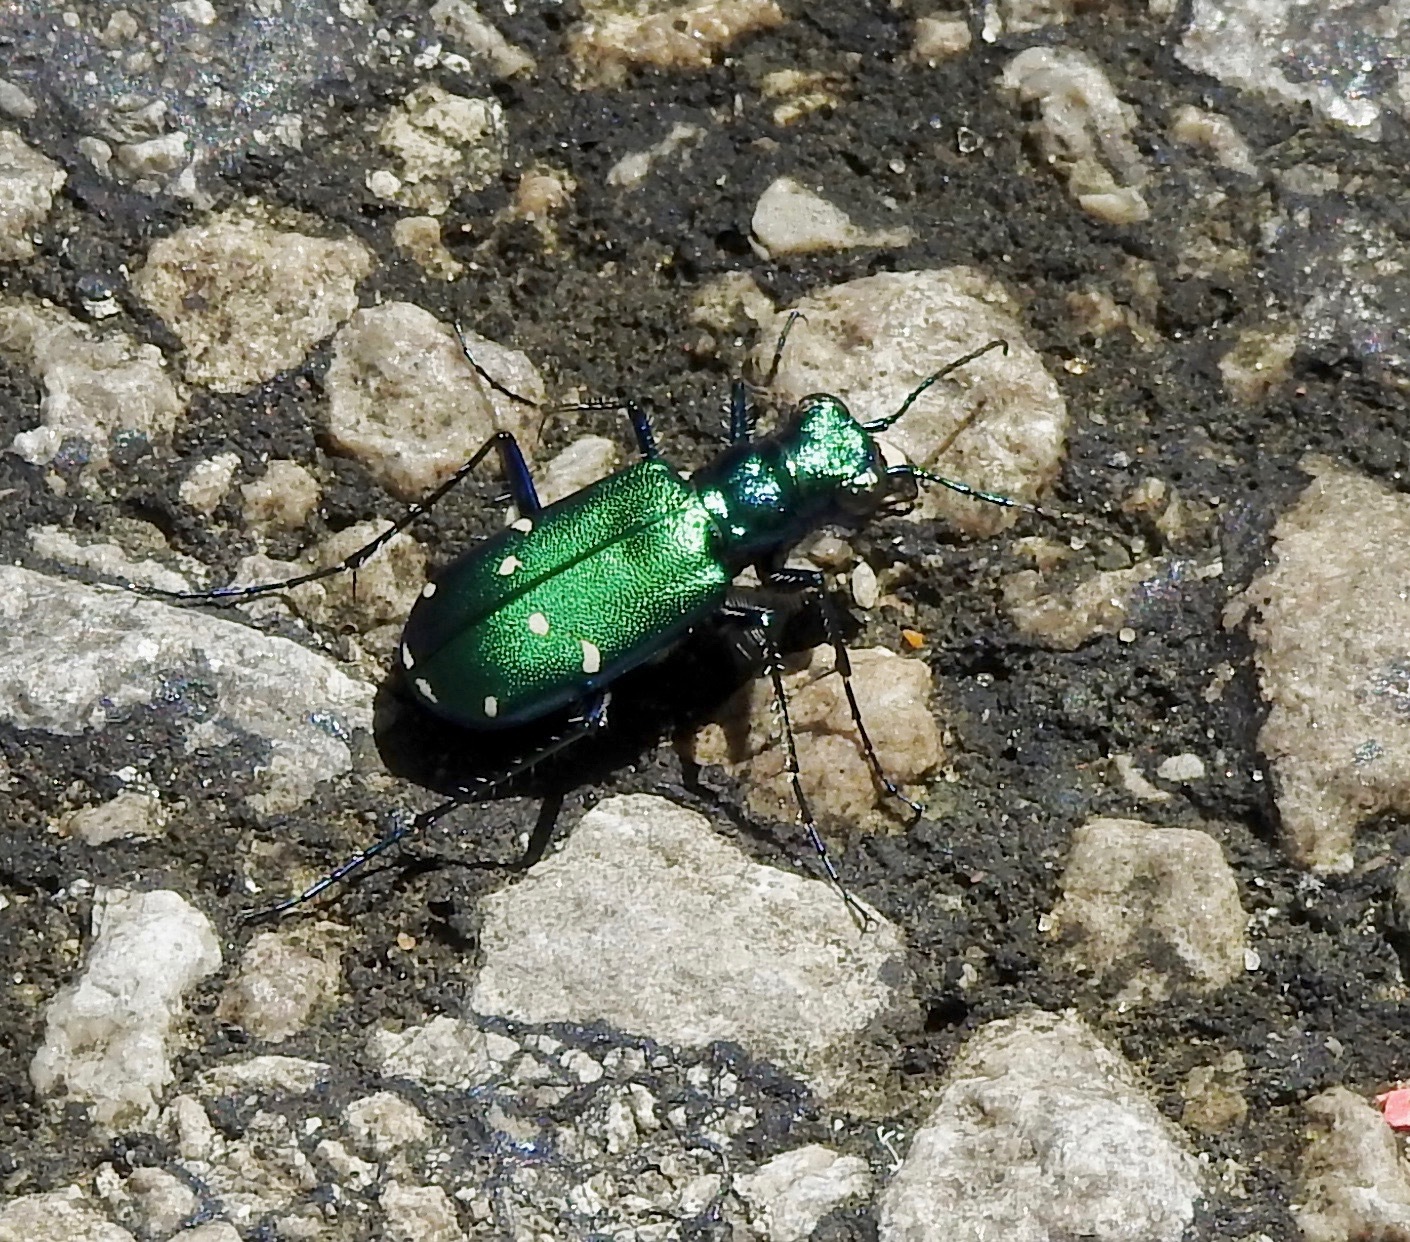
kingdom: Animalia
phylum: Arthropoda
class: Insecta
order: Coleoptera
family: Carabidae
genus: Cicindela
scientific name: Cicindela sexguttata
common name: Six-spotted tiger beetle
